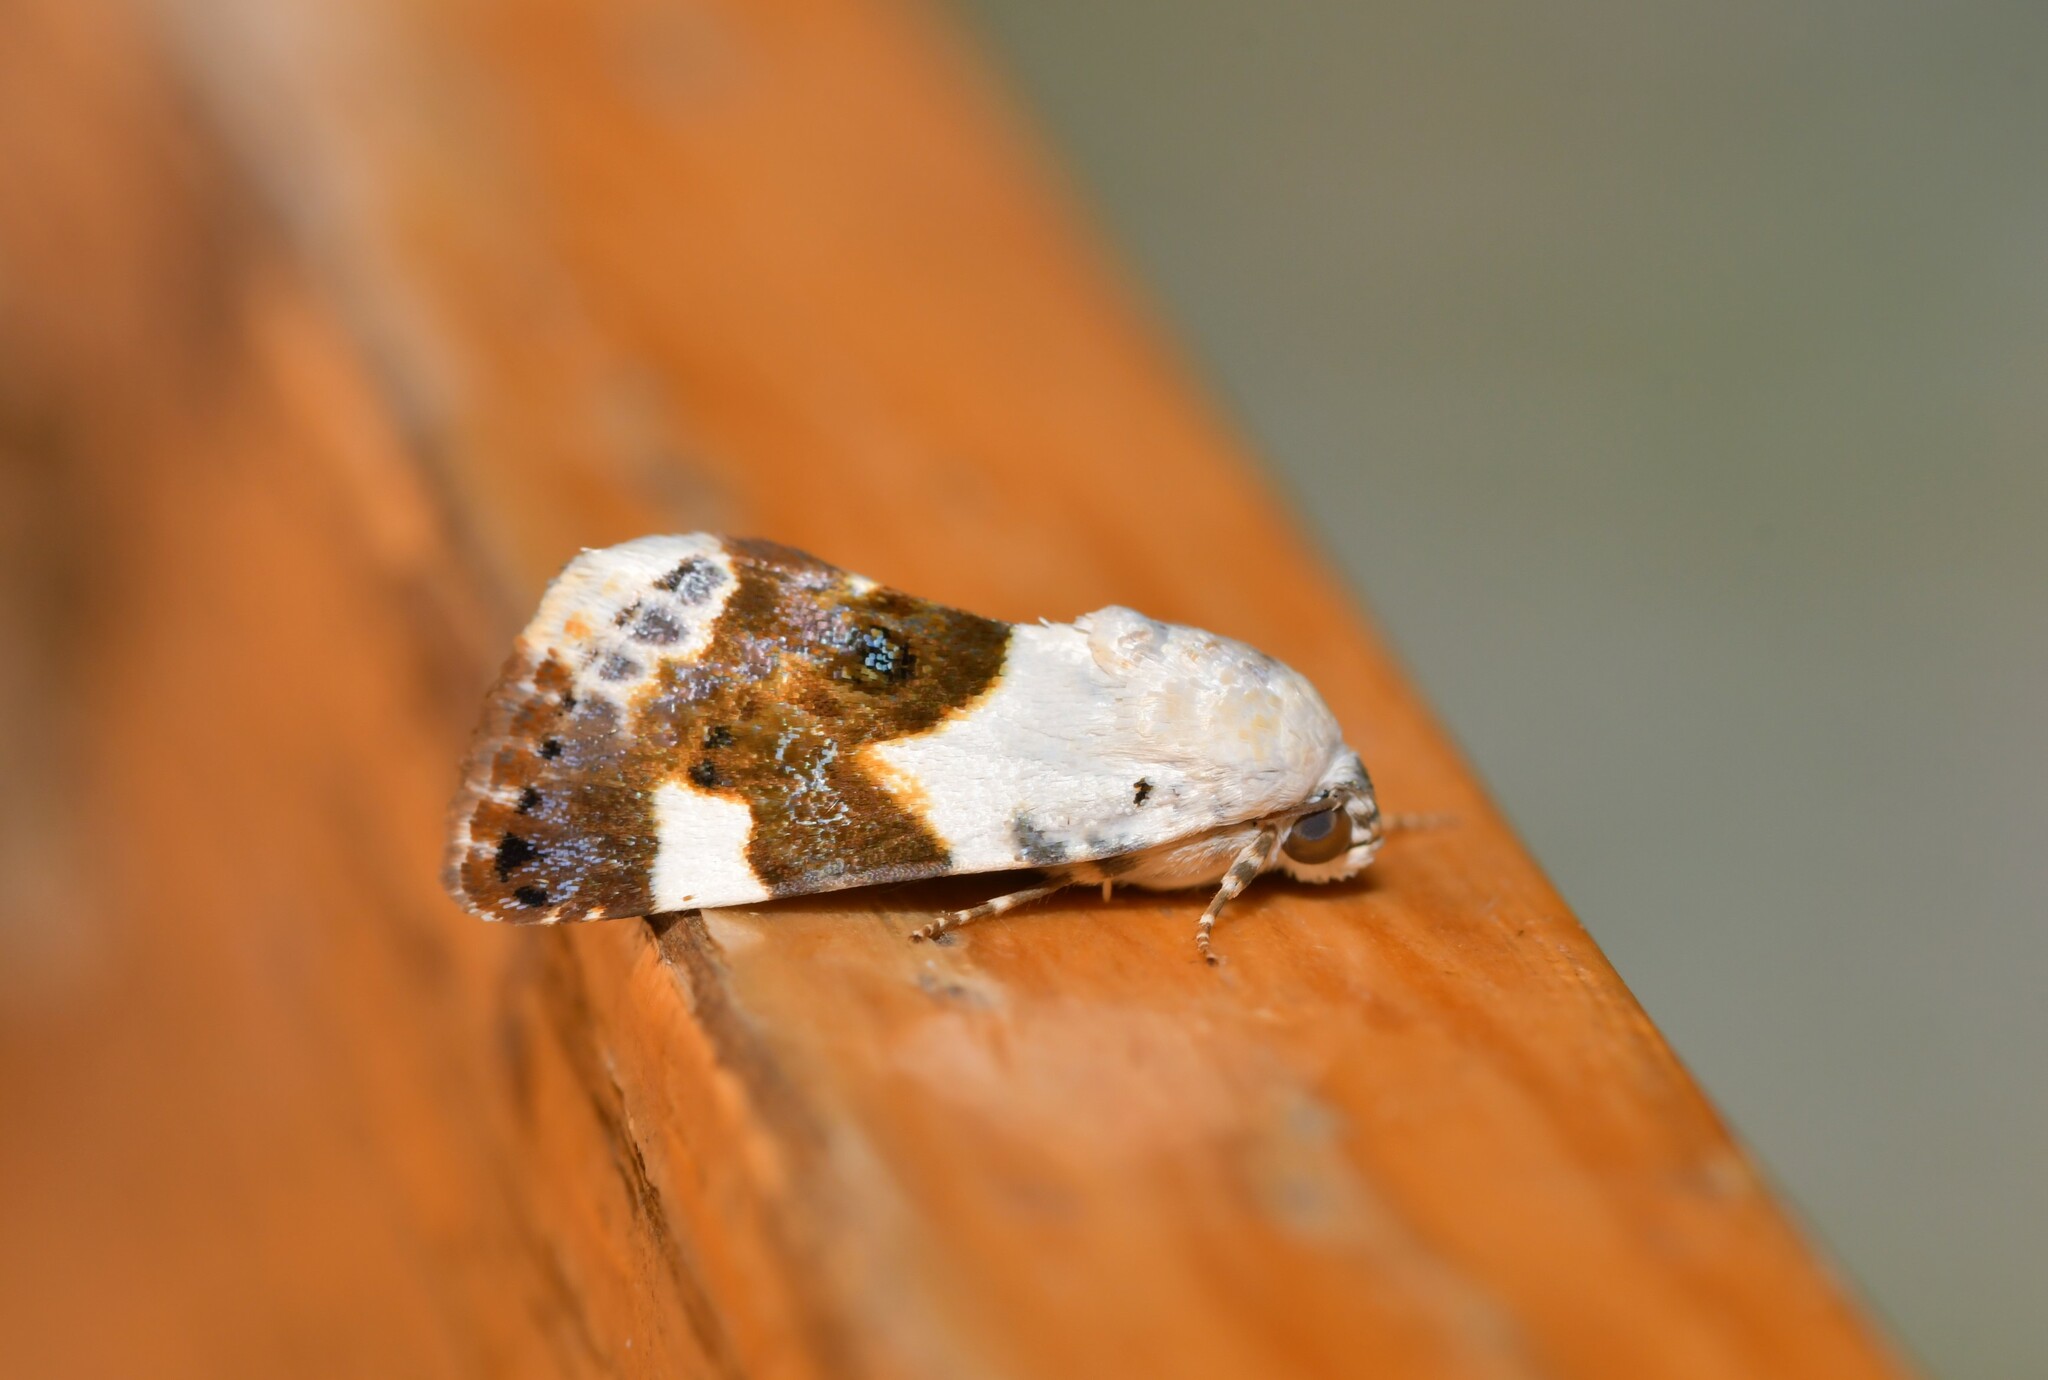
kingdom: Animalia
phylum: Arthropoda
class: Insecta
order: Lepidoptera
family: Noctuidae
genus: Acontia
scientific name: Acontia lucida
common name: Pale shoulder
